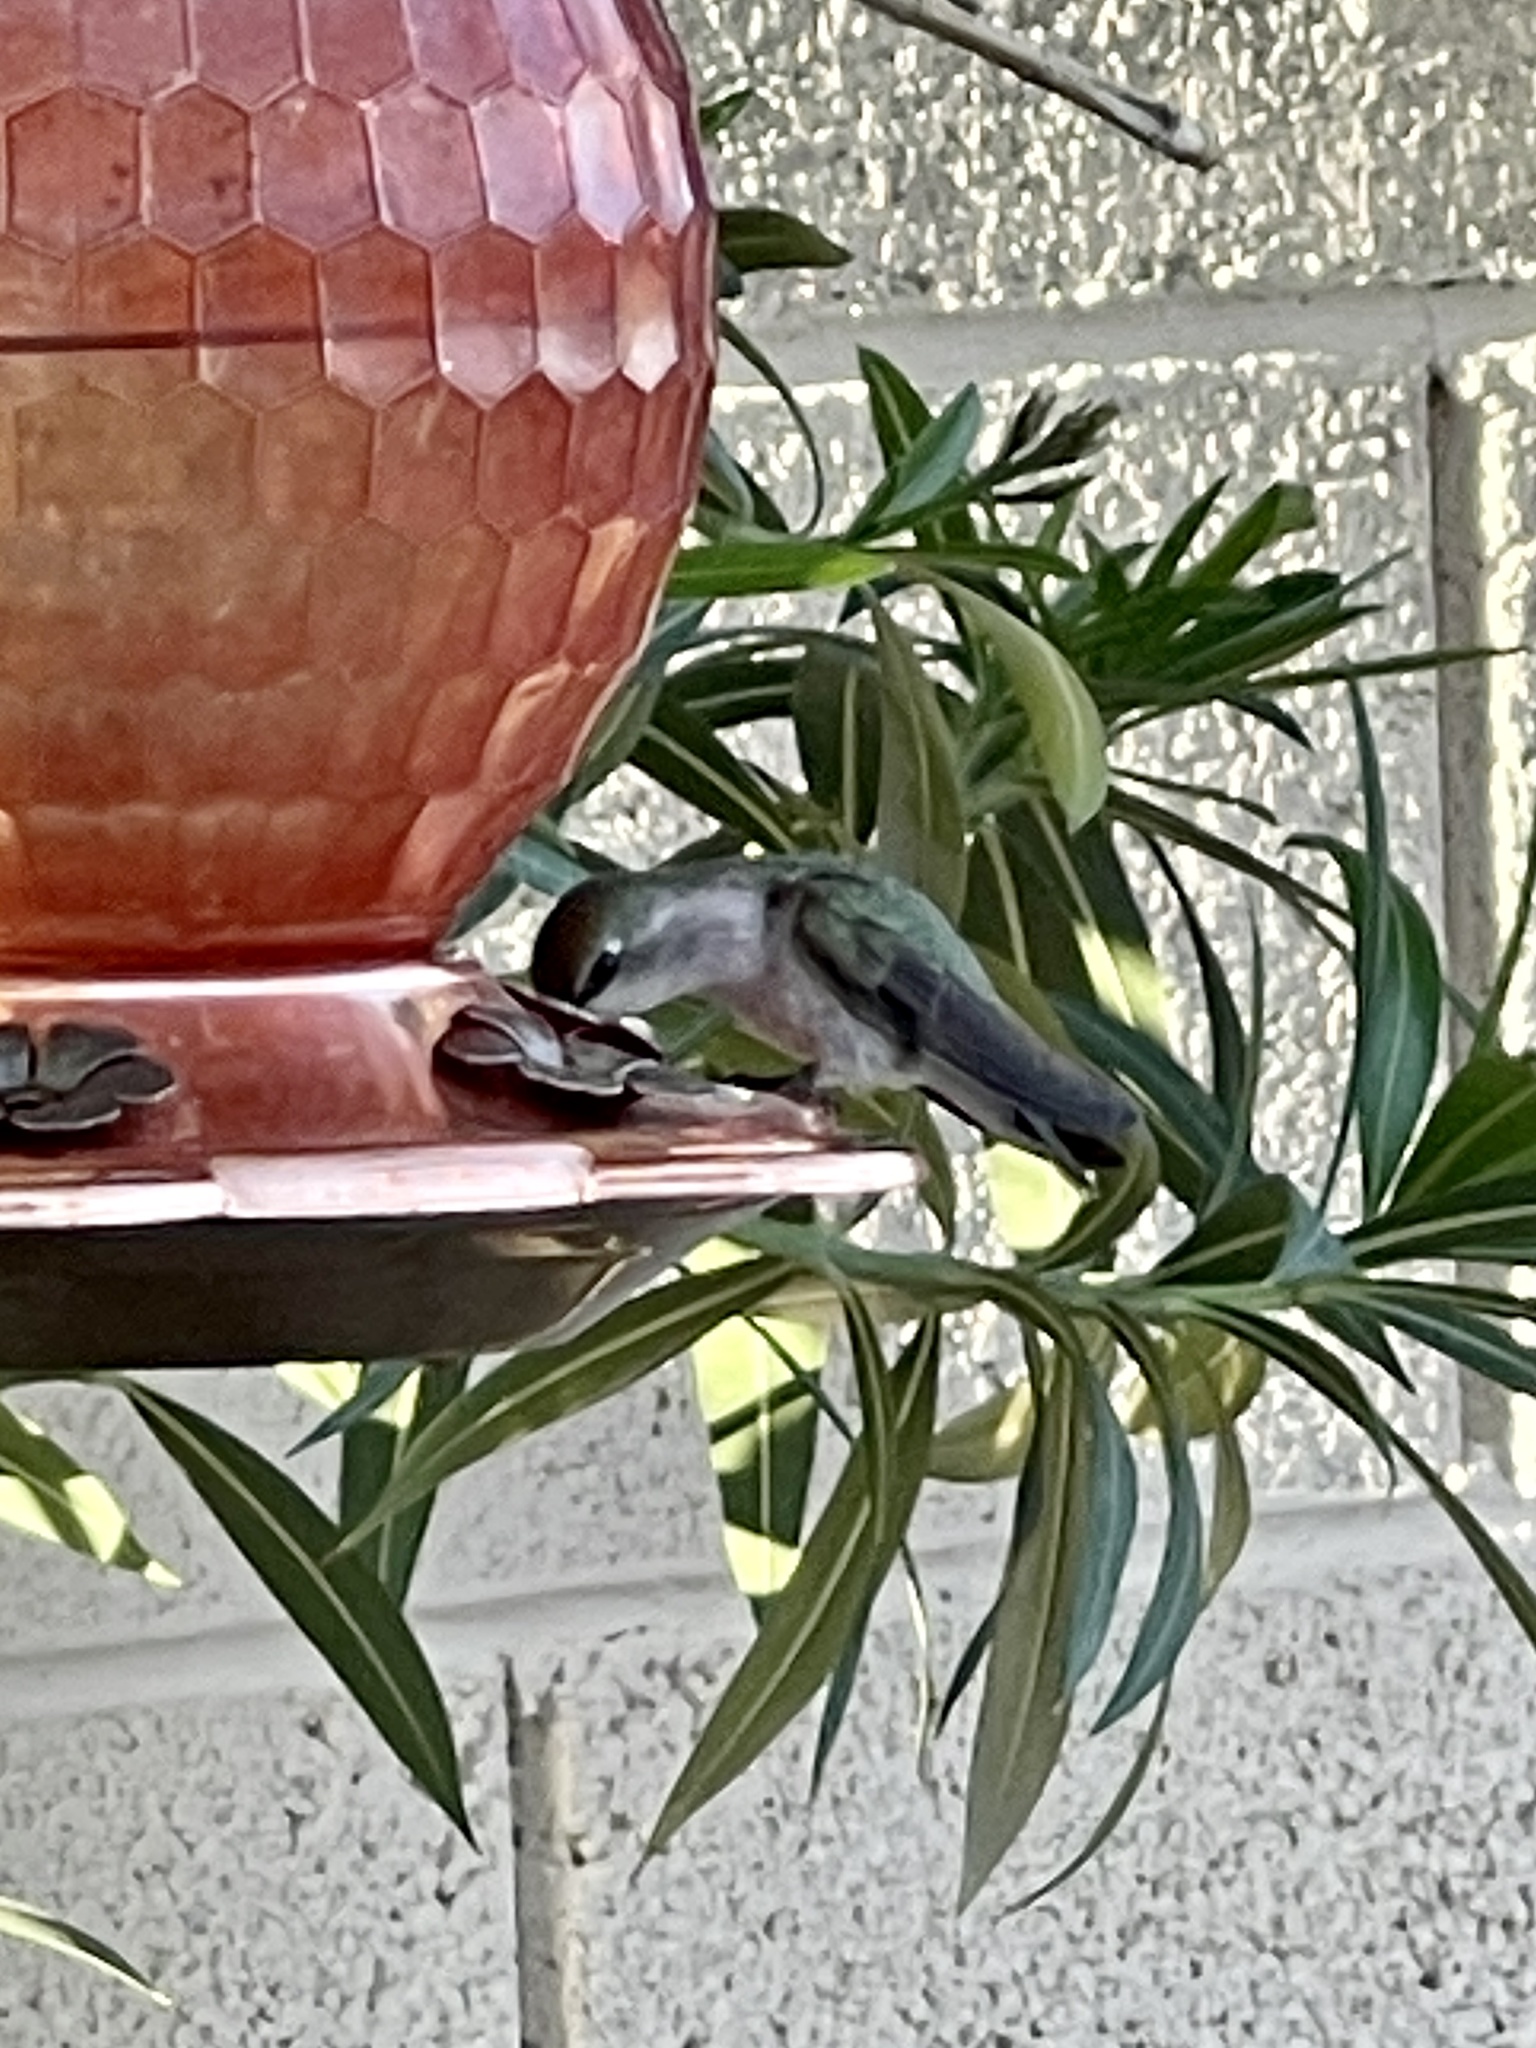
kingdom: Animalia
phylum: Chordata
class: Aves
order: Apodiformes
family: Trochilidae
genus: Calypte
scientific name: Calypte costae
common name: Costa's hummingbird
